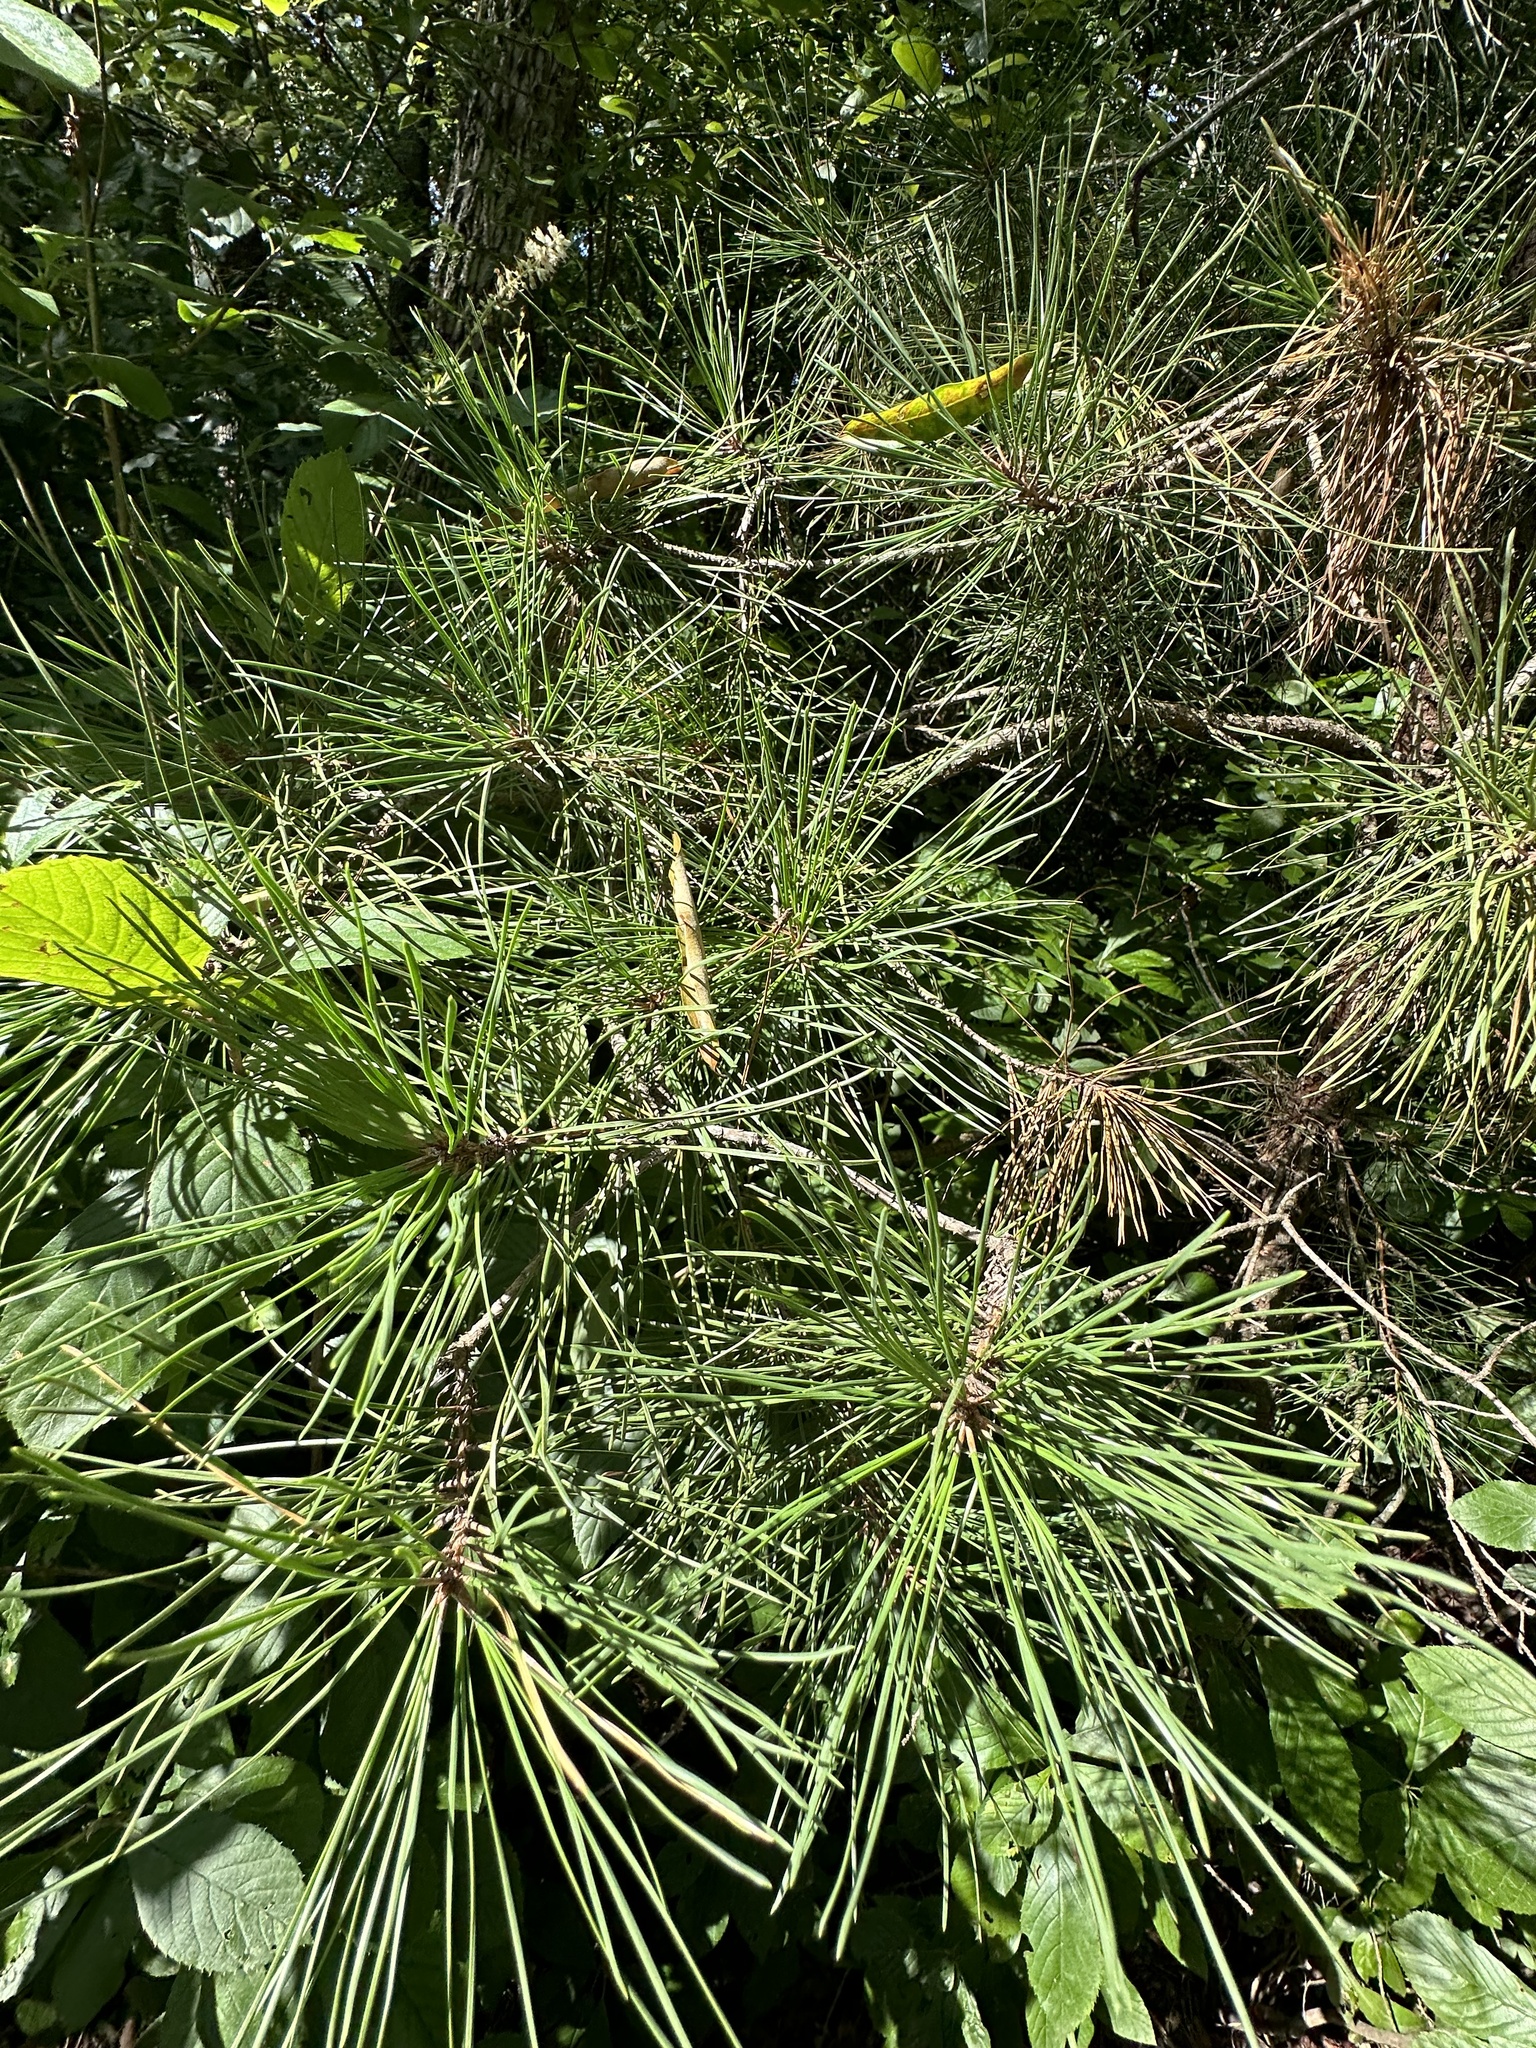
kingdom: Plantae
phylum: Tracheophyta
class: Pinopsida
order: Pinales
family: Pinaceae
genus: Pinus
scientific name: Pinus strobus
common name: Weymouth pine
